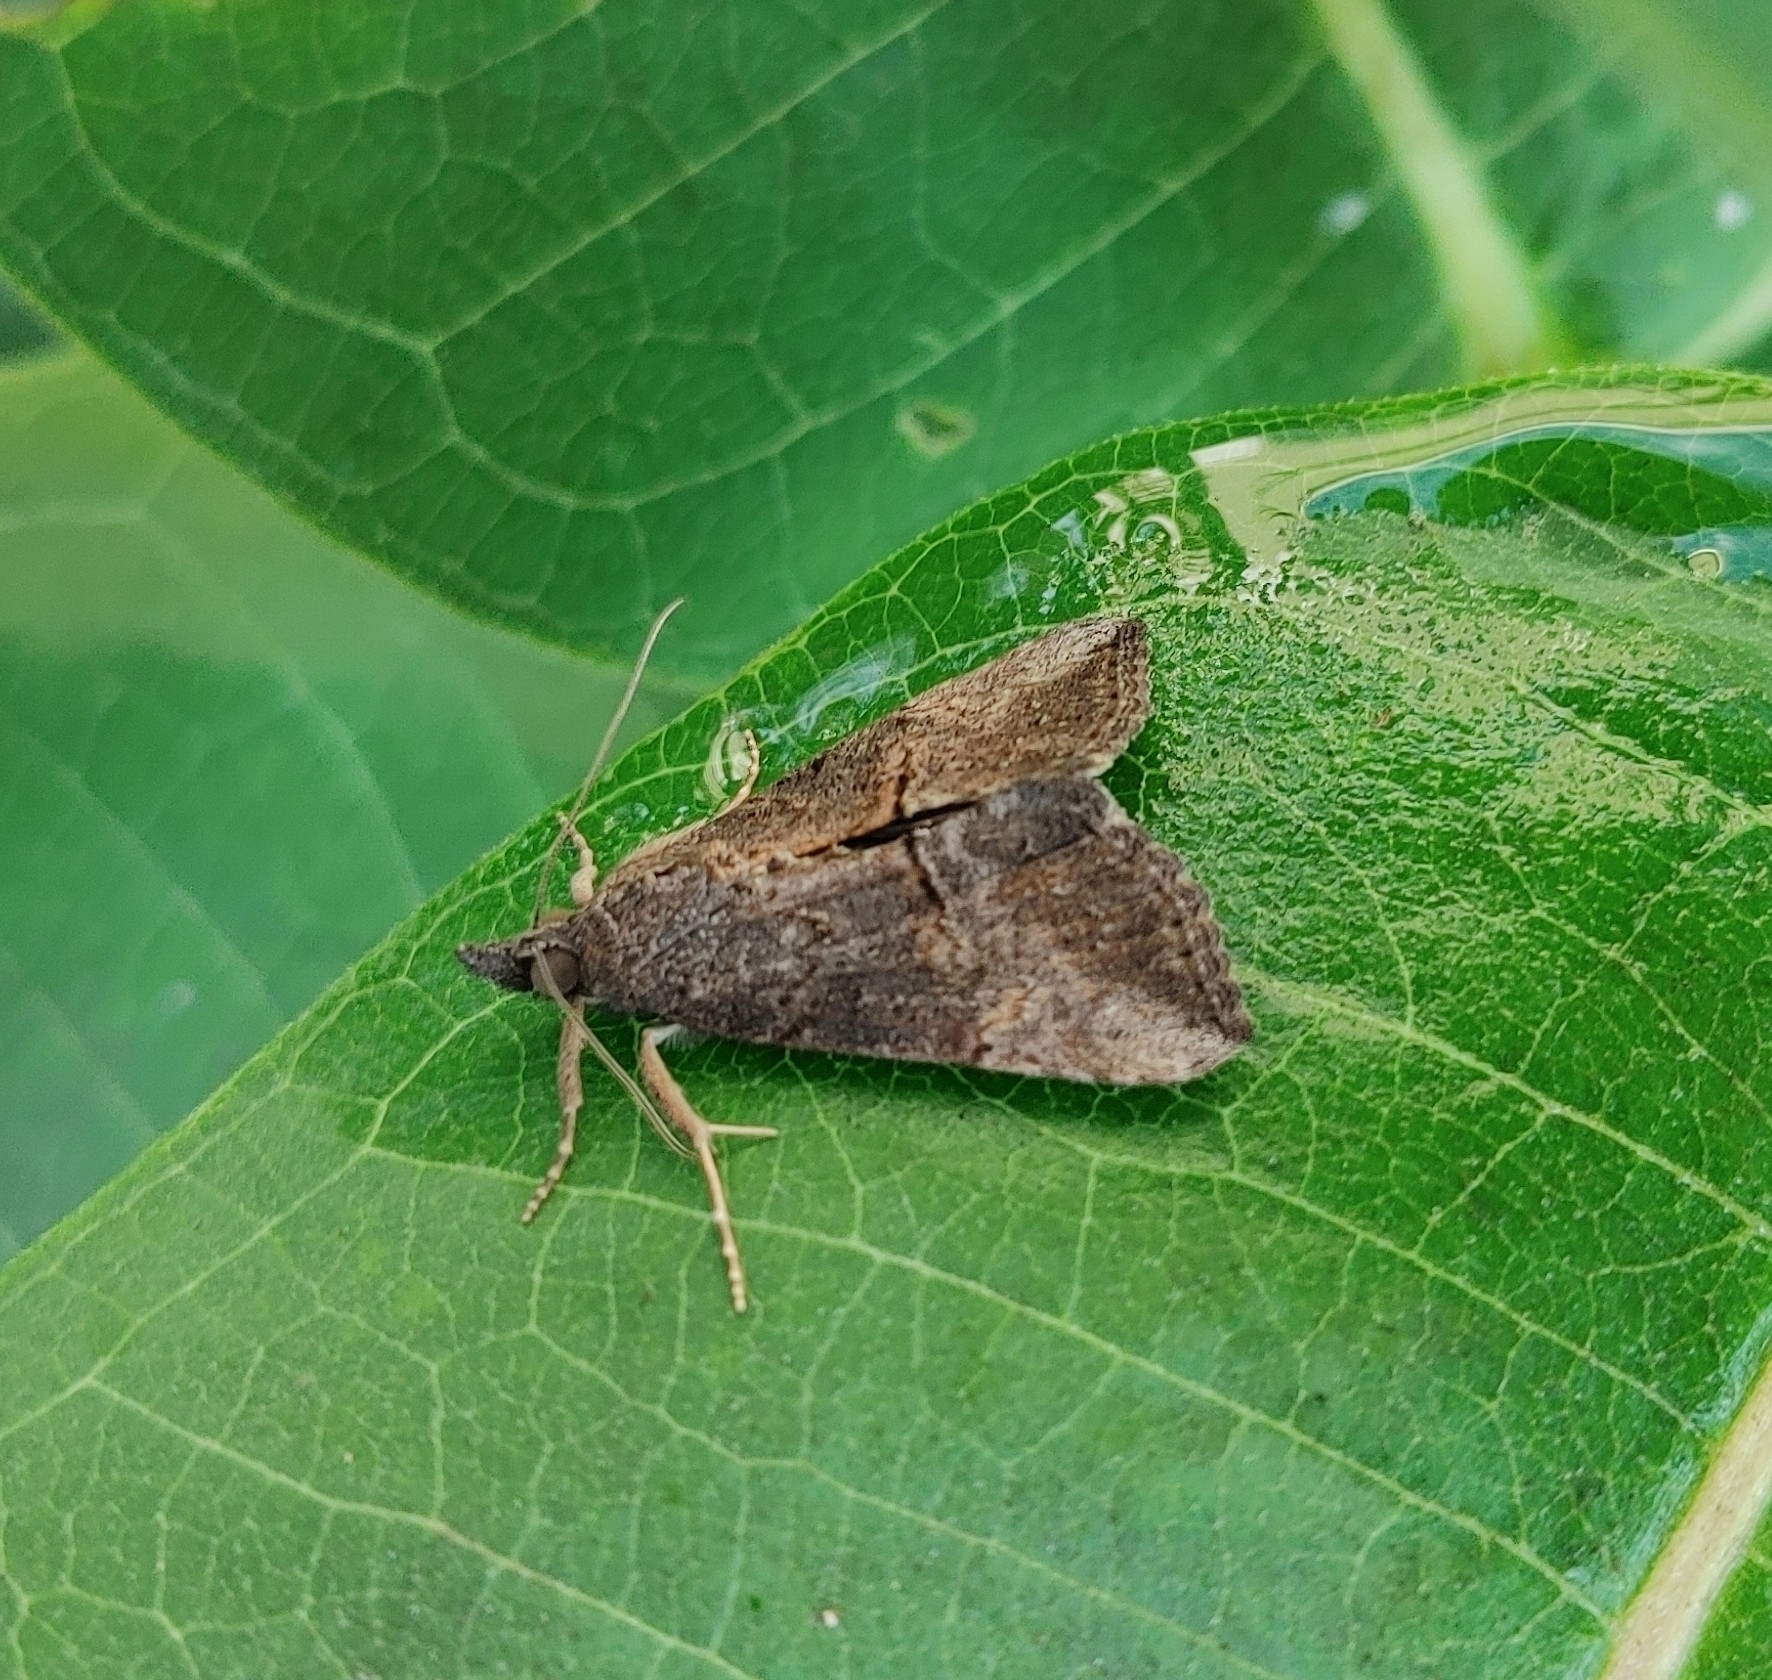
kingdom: Animalia
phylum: Arthropoda
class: Insecta
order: Lepidoptera
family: Erebidae
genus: Hypena
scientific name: Hypena scabra
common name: Green cloverworm
